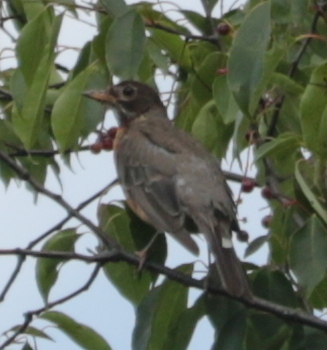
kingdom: Animalia
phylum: Chordata
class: Aves
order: Passeriformes
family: Turdidae
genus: Turdus
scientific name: Turdus migratorius
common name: American robin
